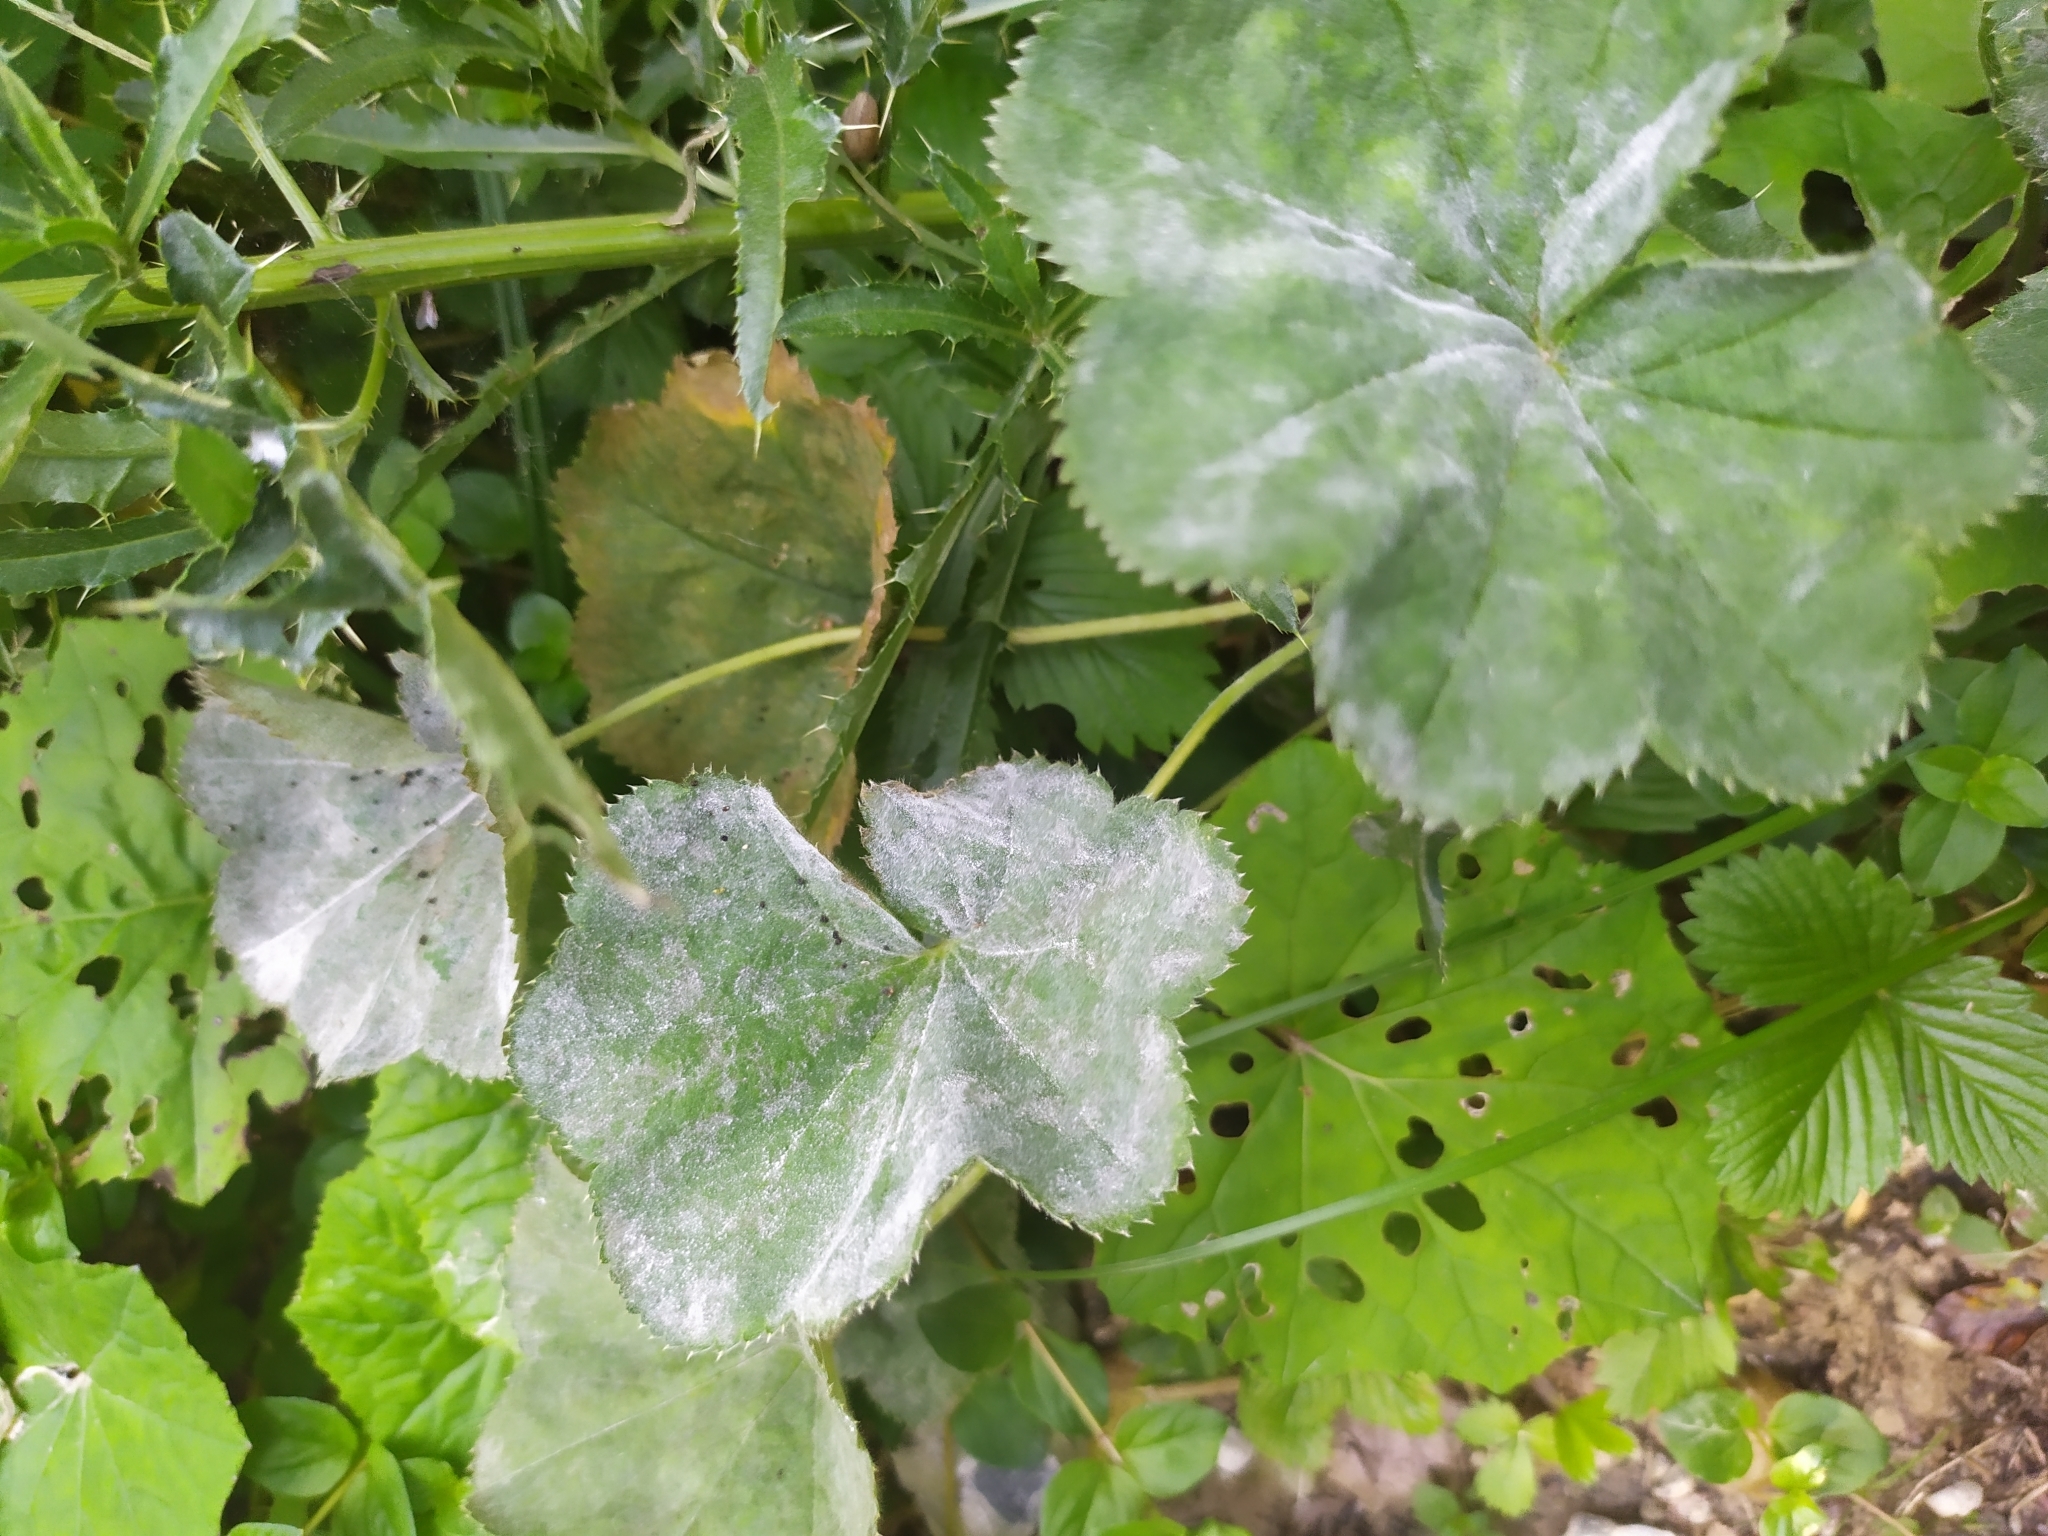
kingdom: Fungi
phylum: Ascomycota
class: Leotiomycetes
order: Helotiales
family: Erysiphaceae
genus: Podosphaera
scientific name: Podosphaera aphanis
